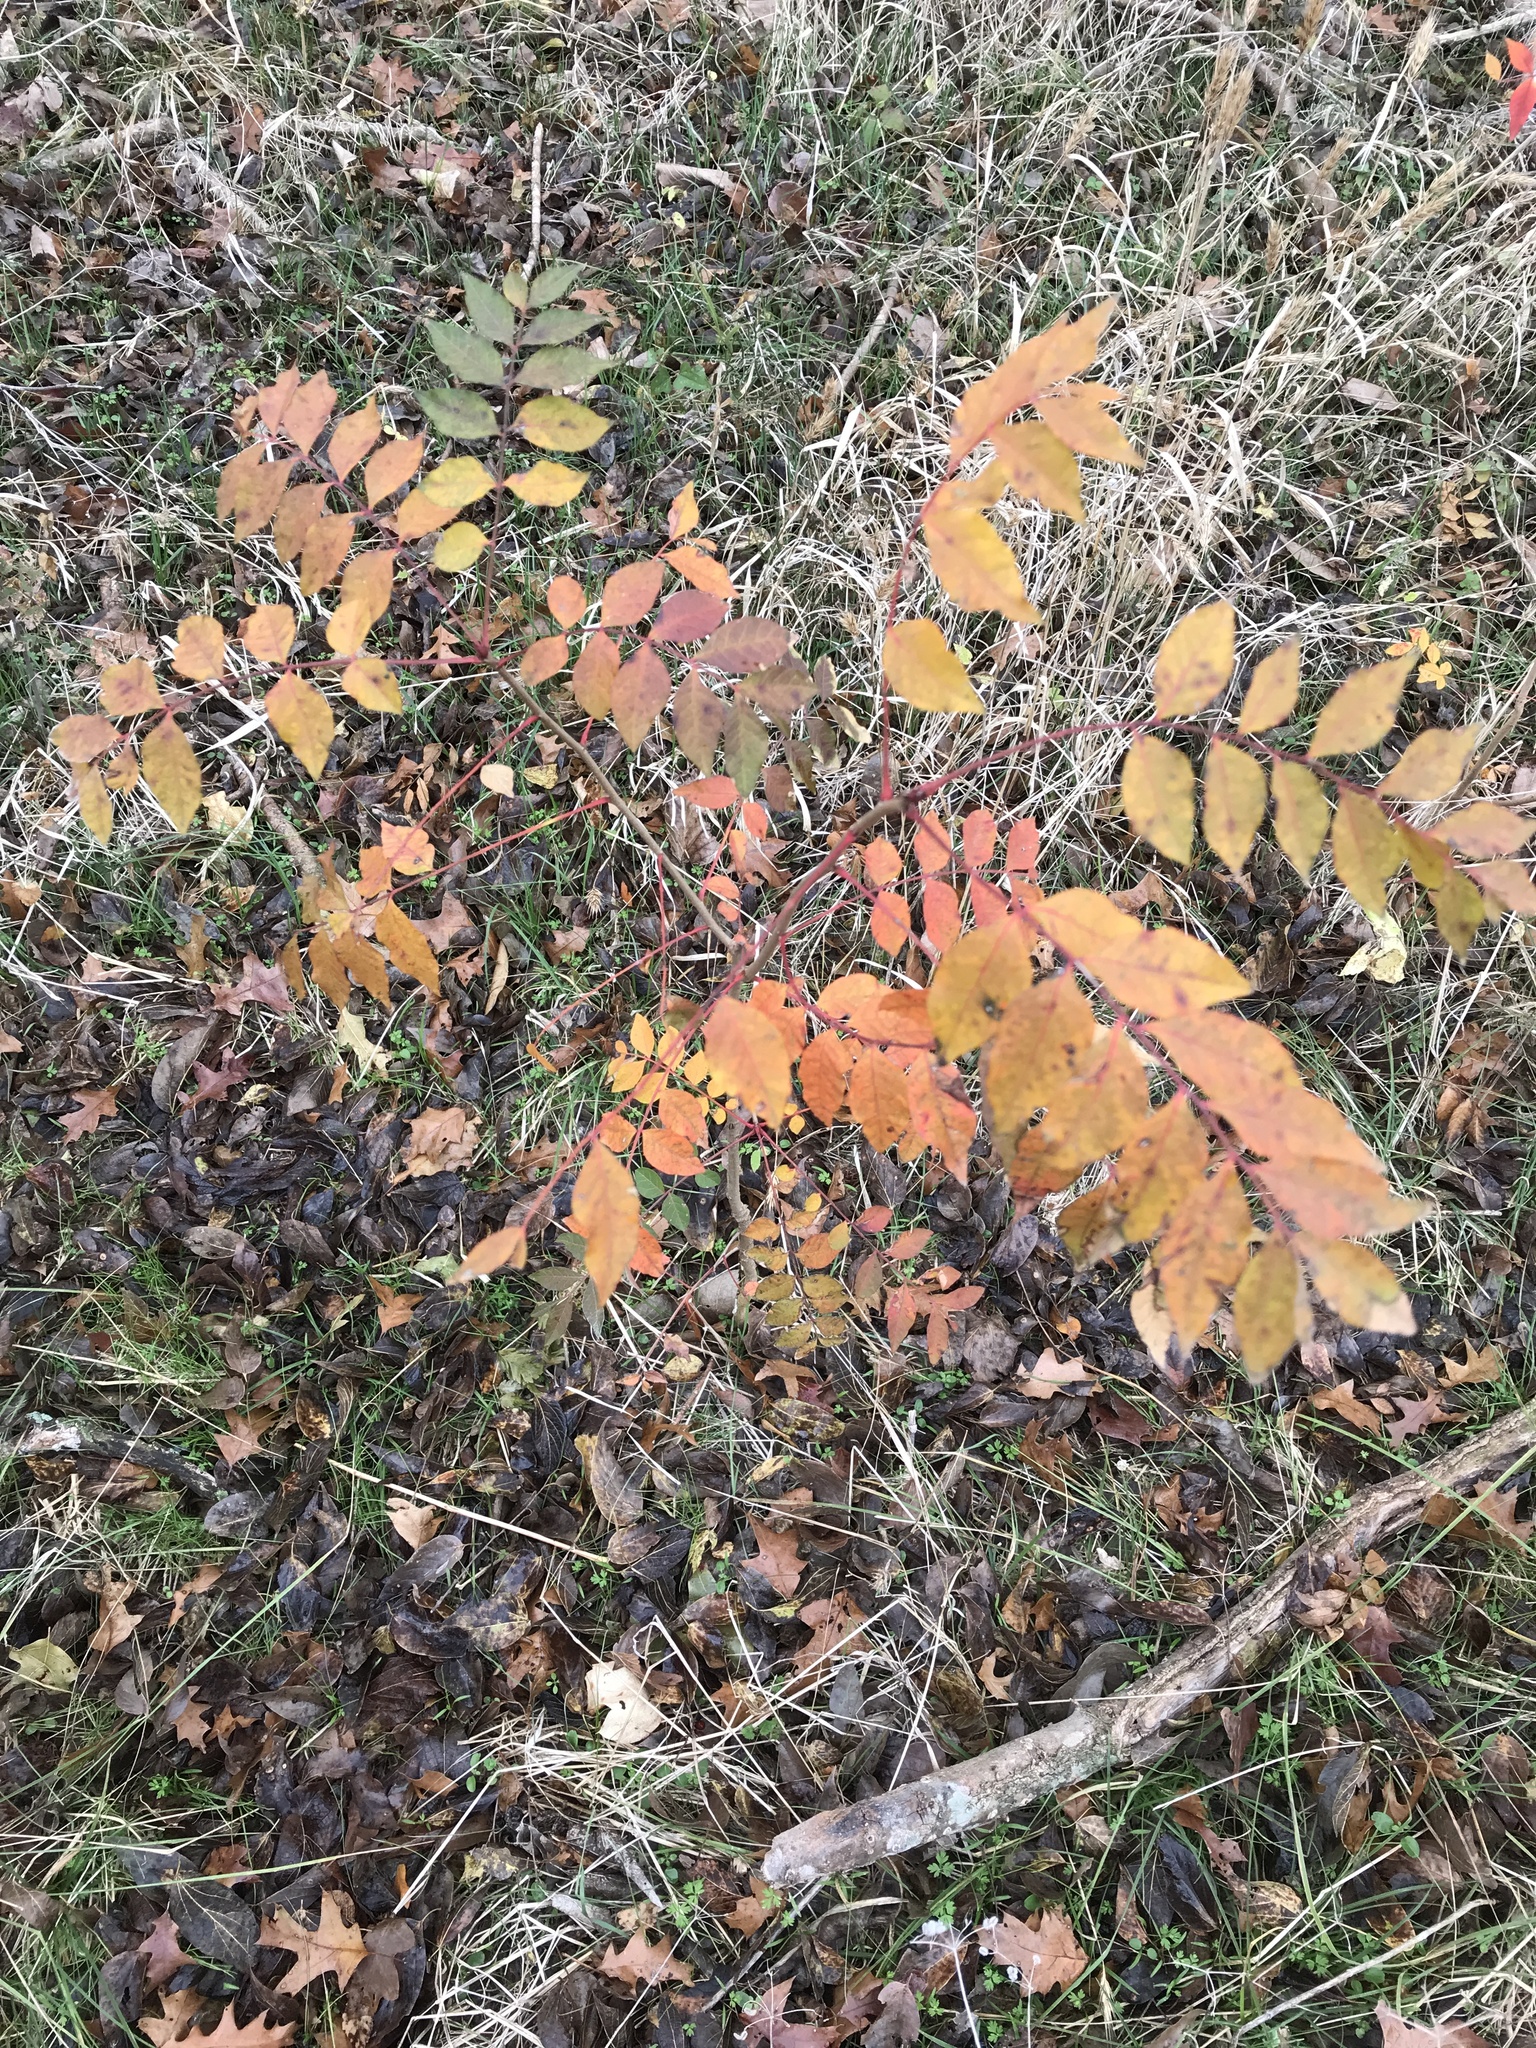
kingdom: Plantae
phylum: Tracheophyta
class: Magnoliopsida
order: Sapindales
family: Anacardiaceae
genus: Pistacia
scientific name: Pistacia chinensis
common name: Chinese pistache
